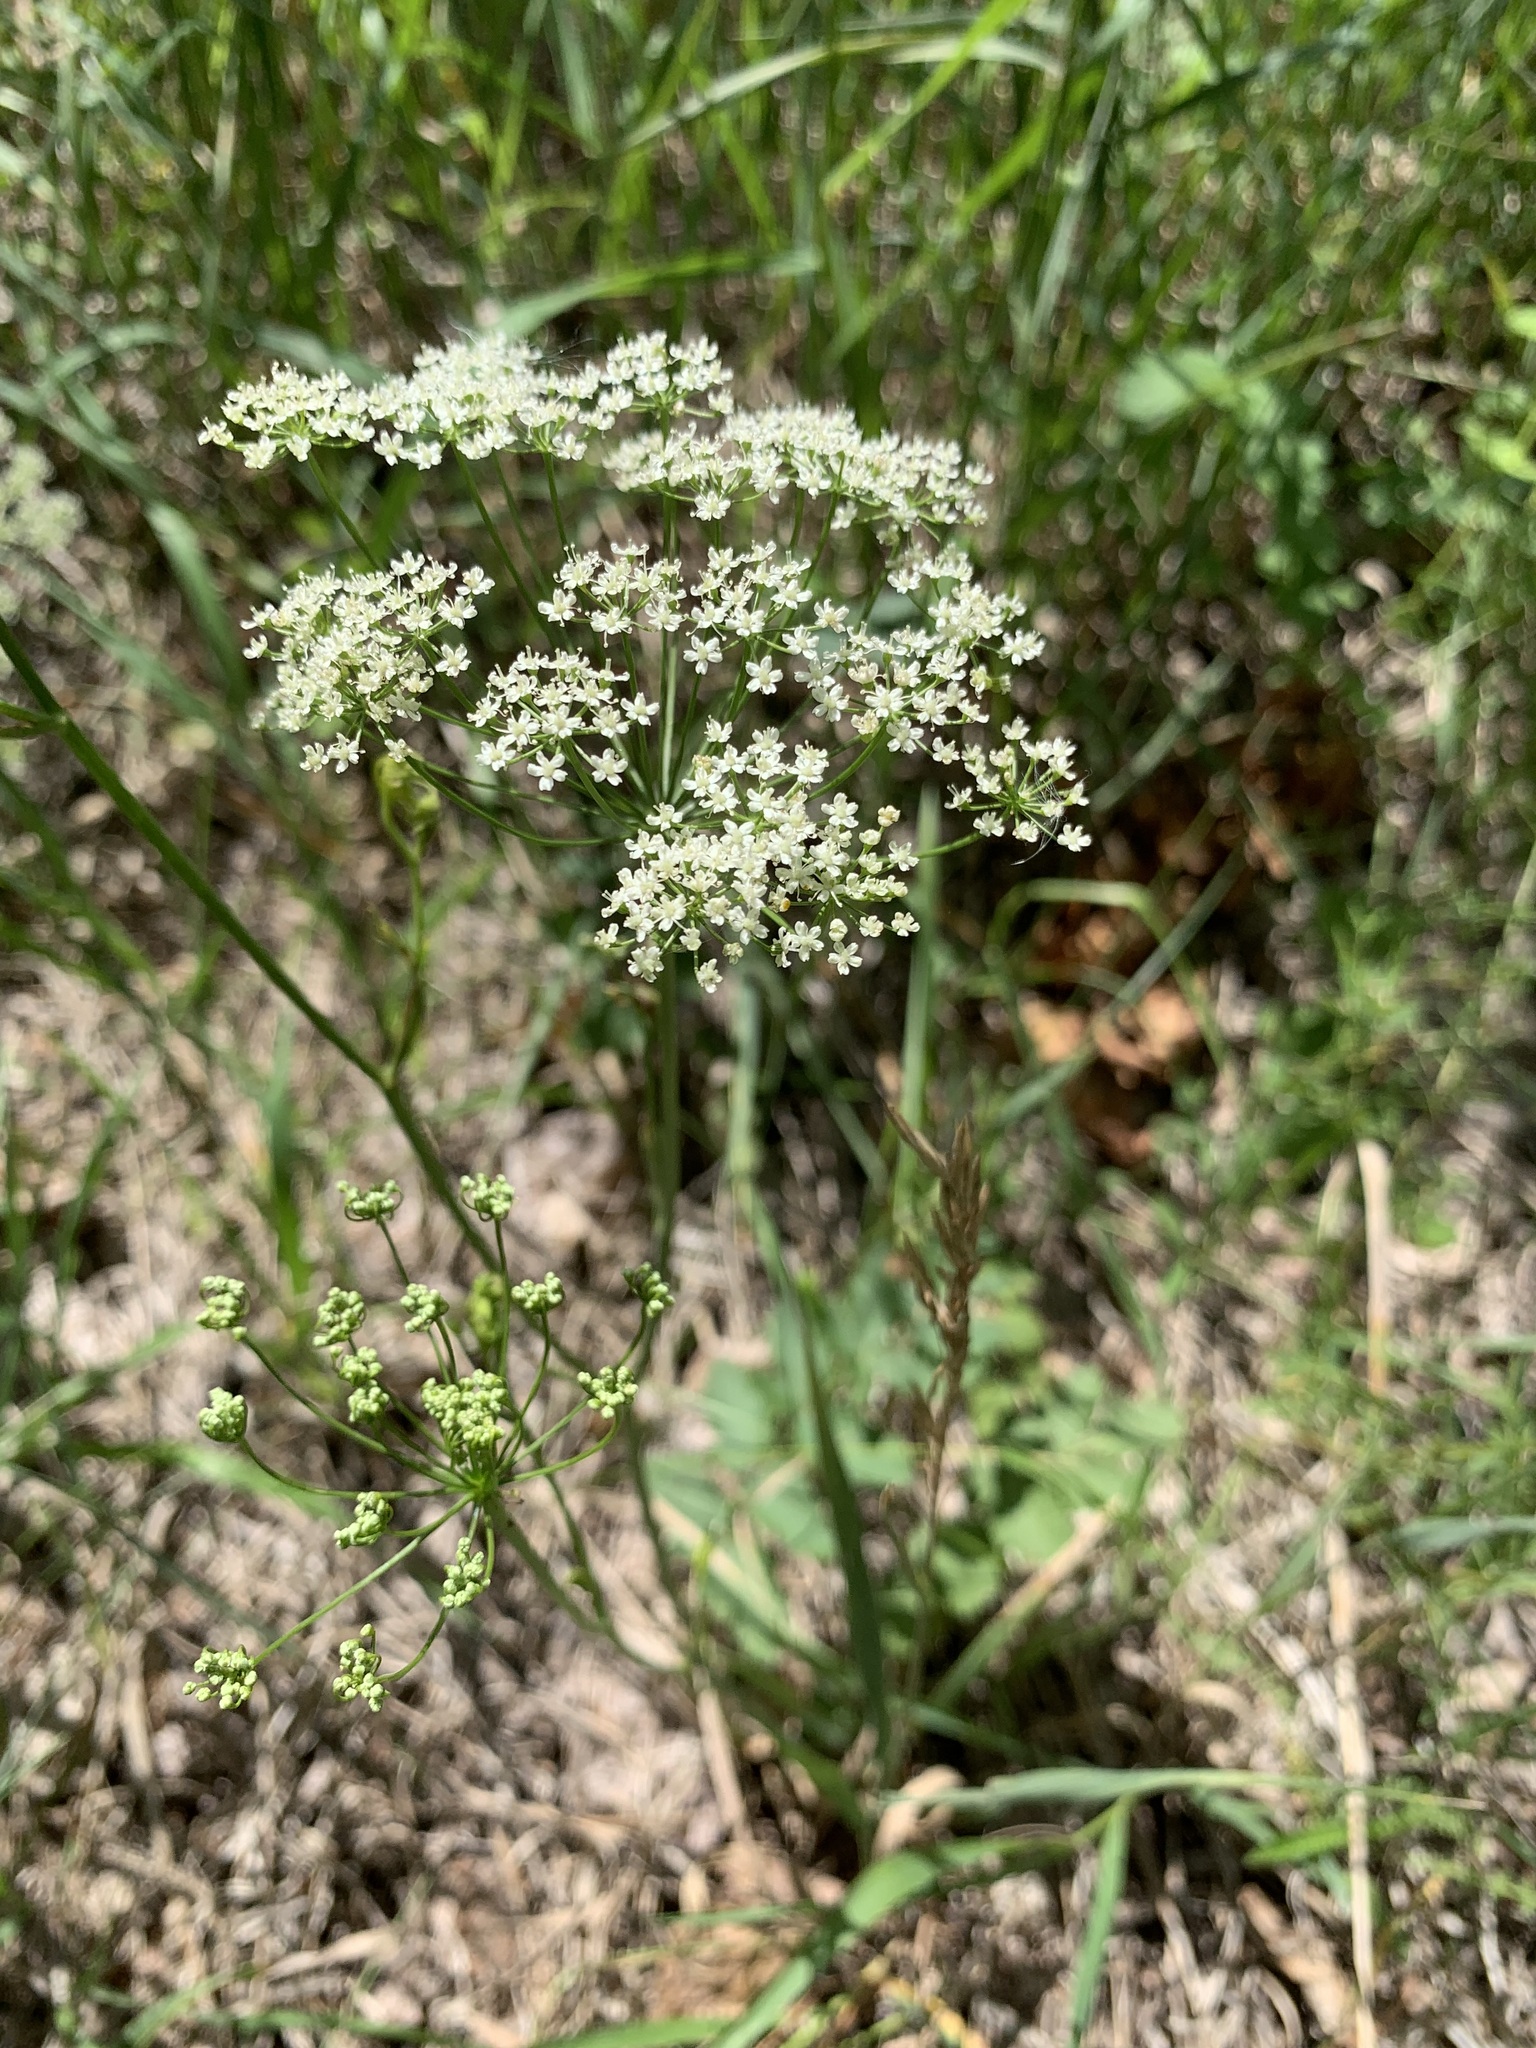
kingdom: Plantae
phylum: Tracheophyta
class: Magnoliopsida
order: Apiales
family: Apiaceae
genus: Pimpinella
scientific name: Pimpinella saxifraga
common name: Burnet-saxifrage
